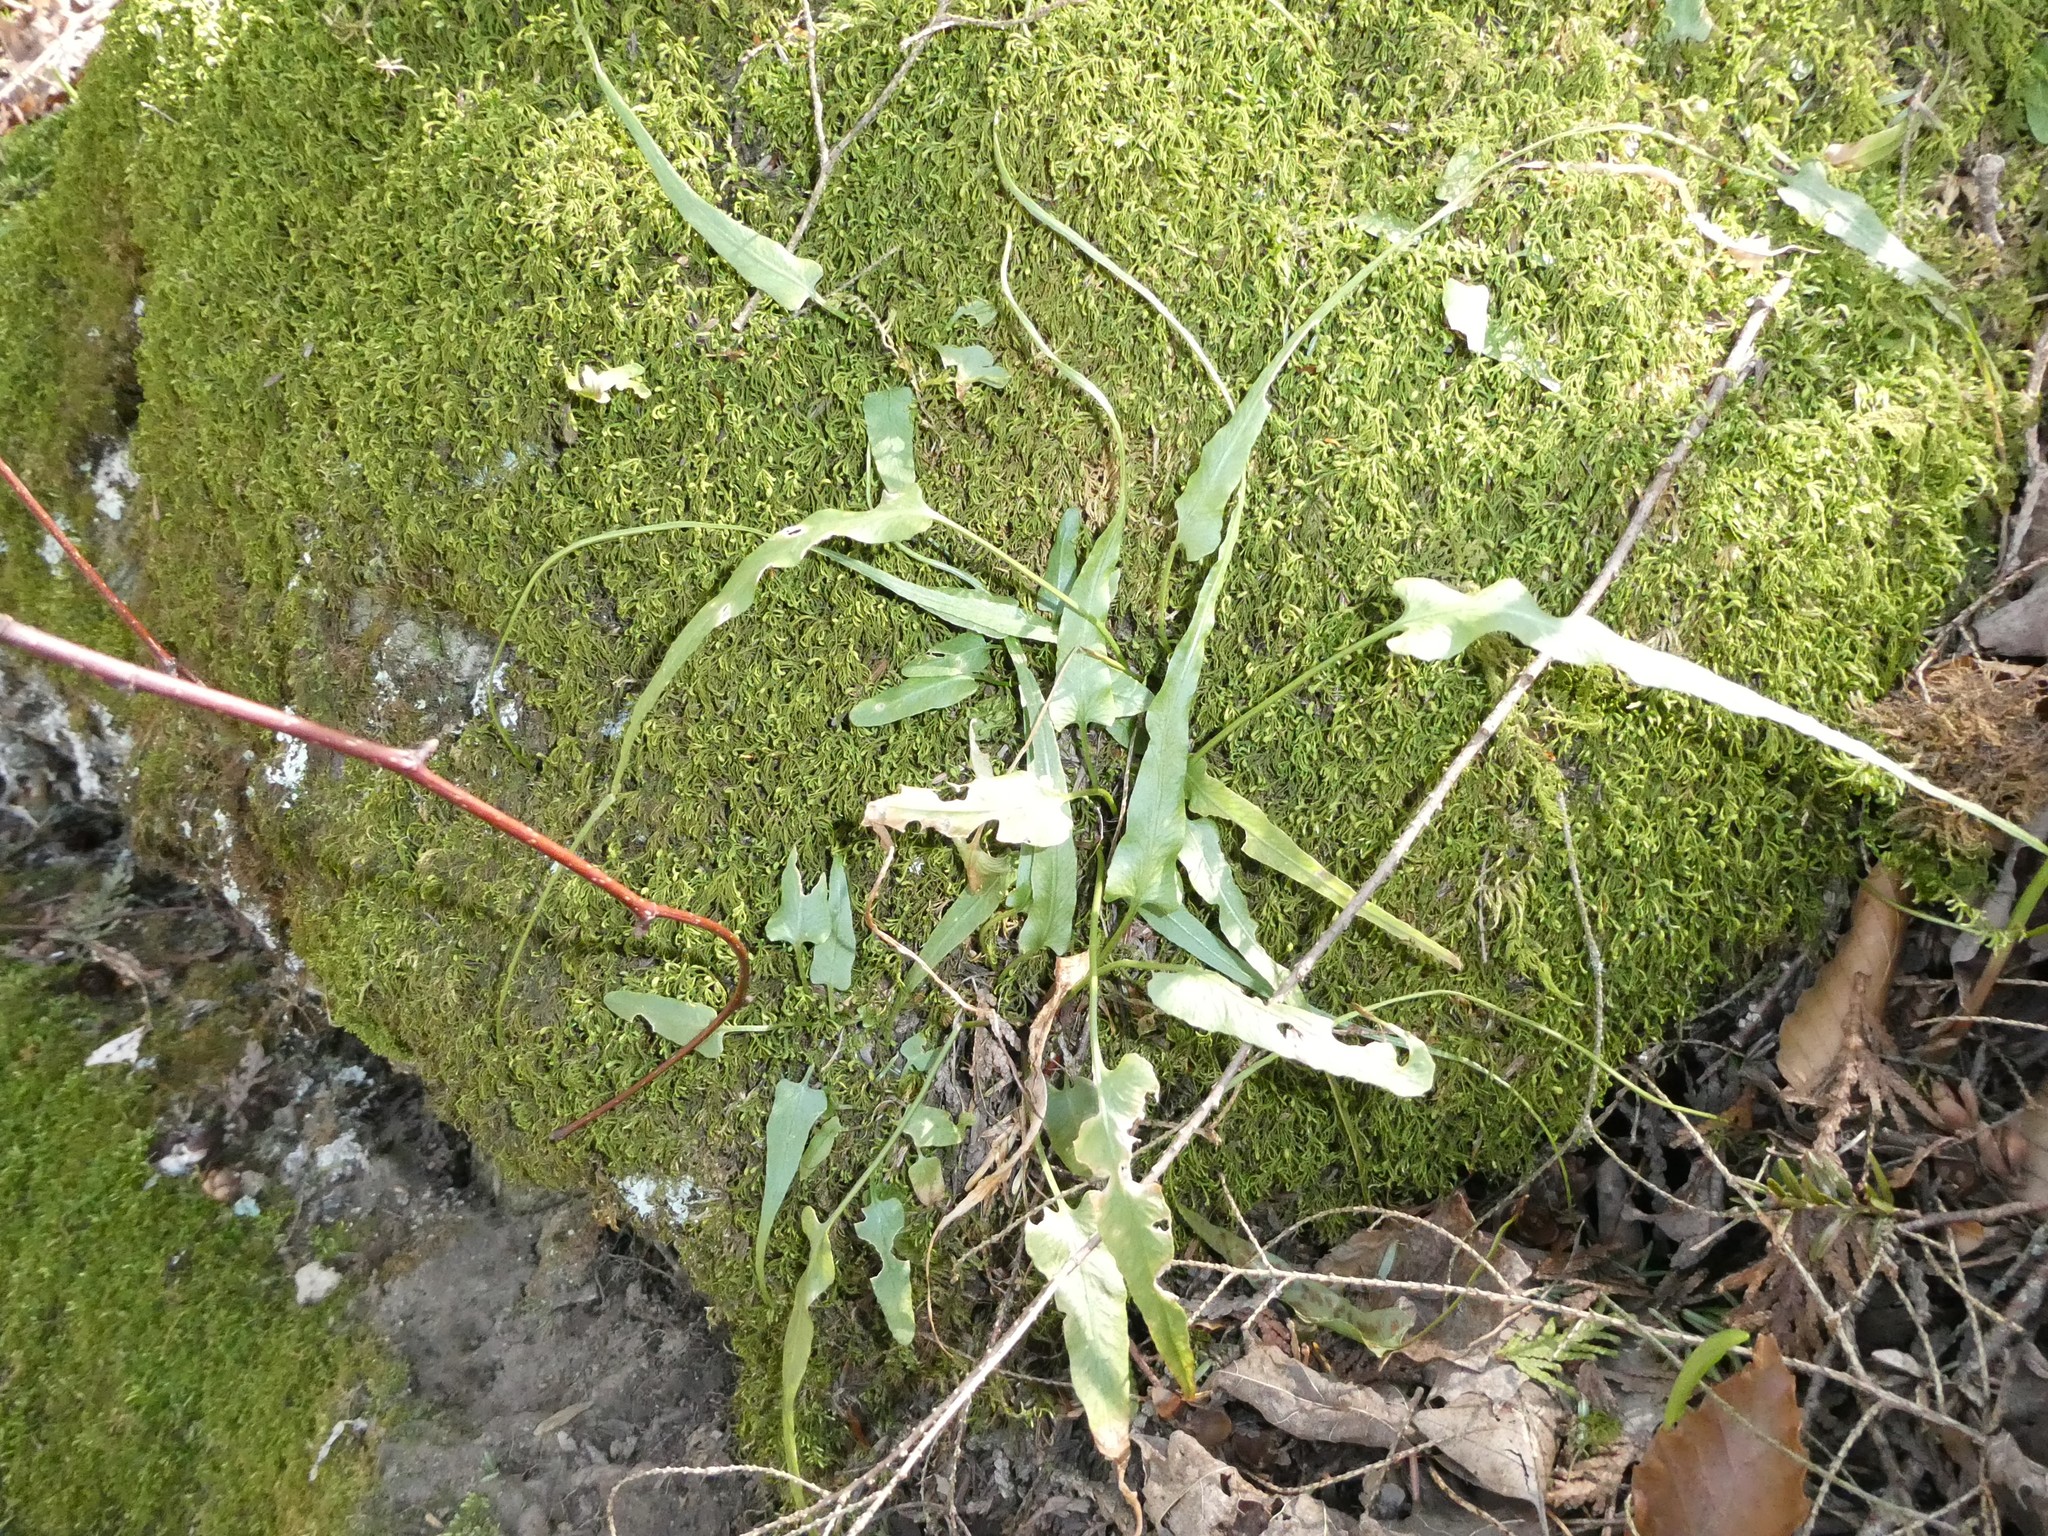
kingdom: Plantae
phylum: Tracheophyta
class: Polypodiopsida
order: Polypodiales
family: Aspleniaceae
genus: Asplenium
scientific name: Asplenium rhizophyllum
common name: Walking fern
